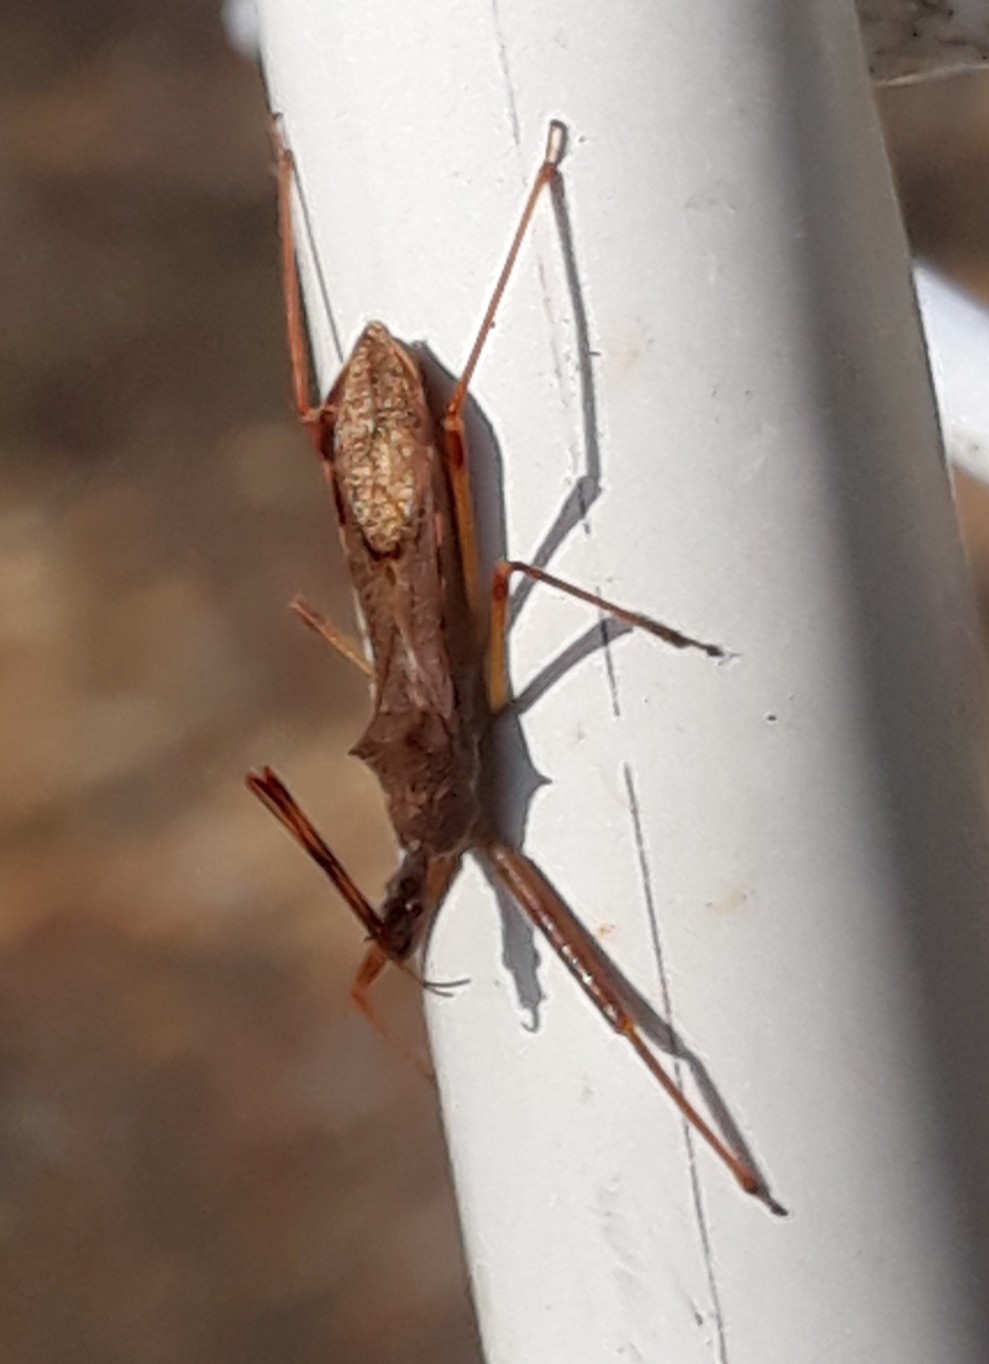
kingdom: Animalia
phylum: Arthropoda
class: Insecta
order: Hemiptera
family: Reduviidae
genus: Nagusta
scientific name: Nagusta goedelii
